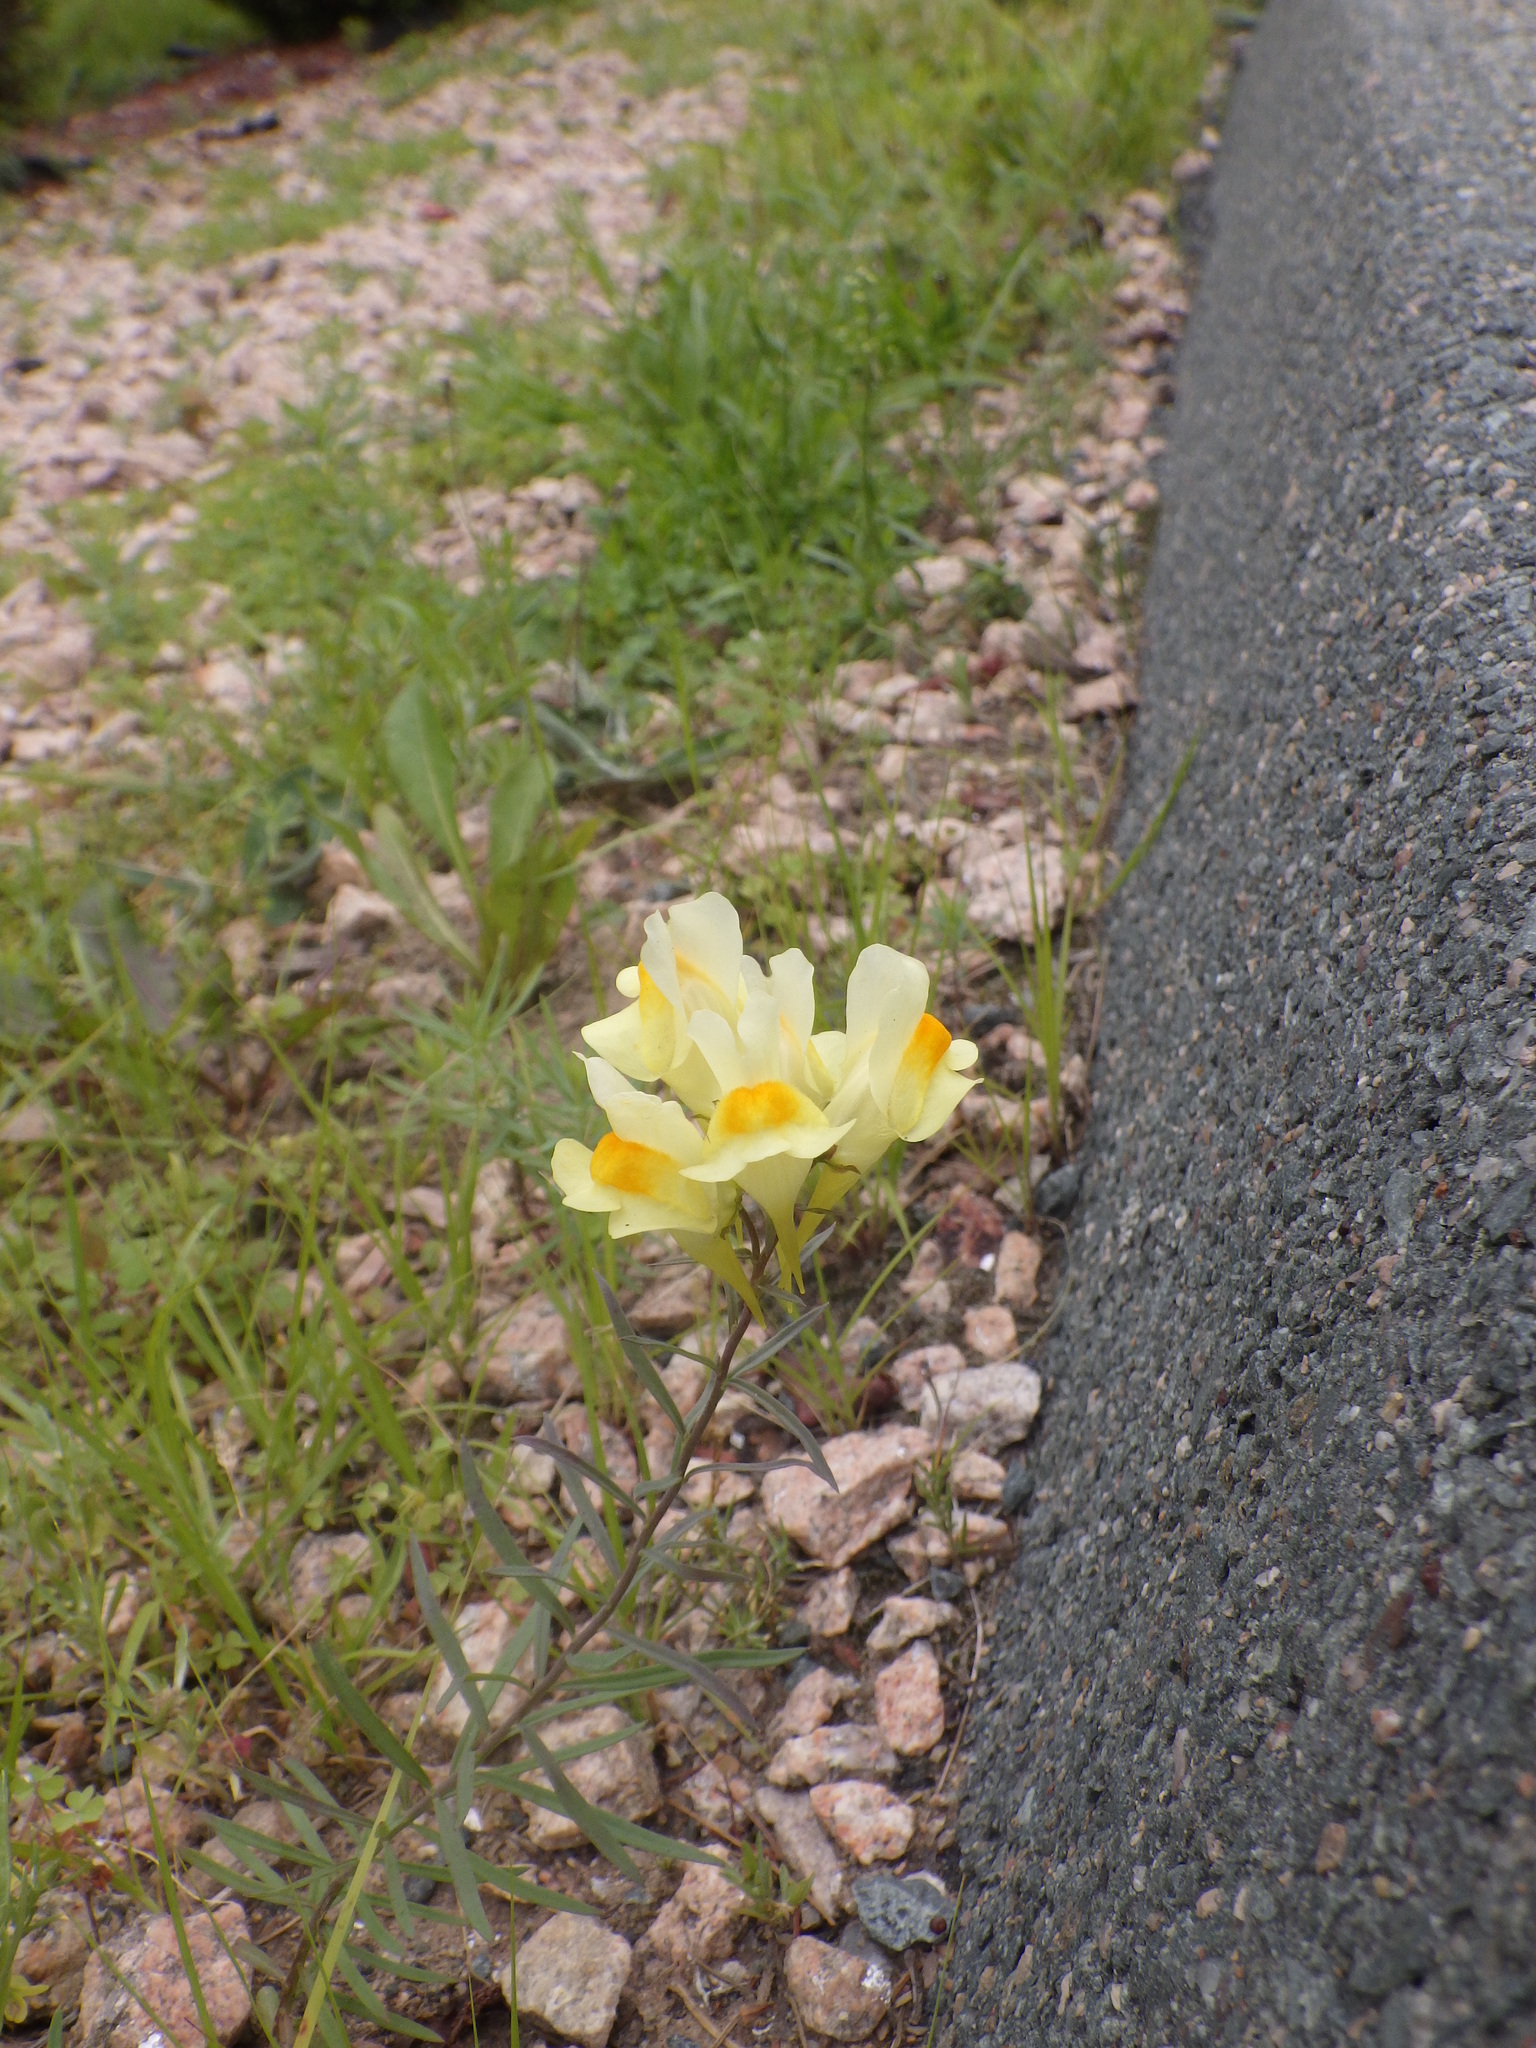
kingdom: Plantae
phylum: Tracheophyta
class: Magnoliopsida
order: Lamiales
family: Plantaginaceae
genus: Linaria
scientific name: Linaria vulgaris
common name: Butter and eggs
